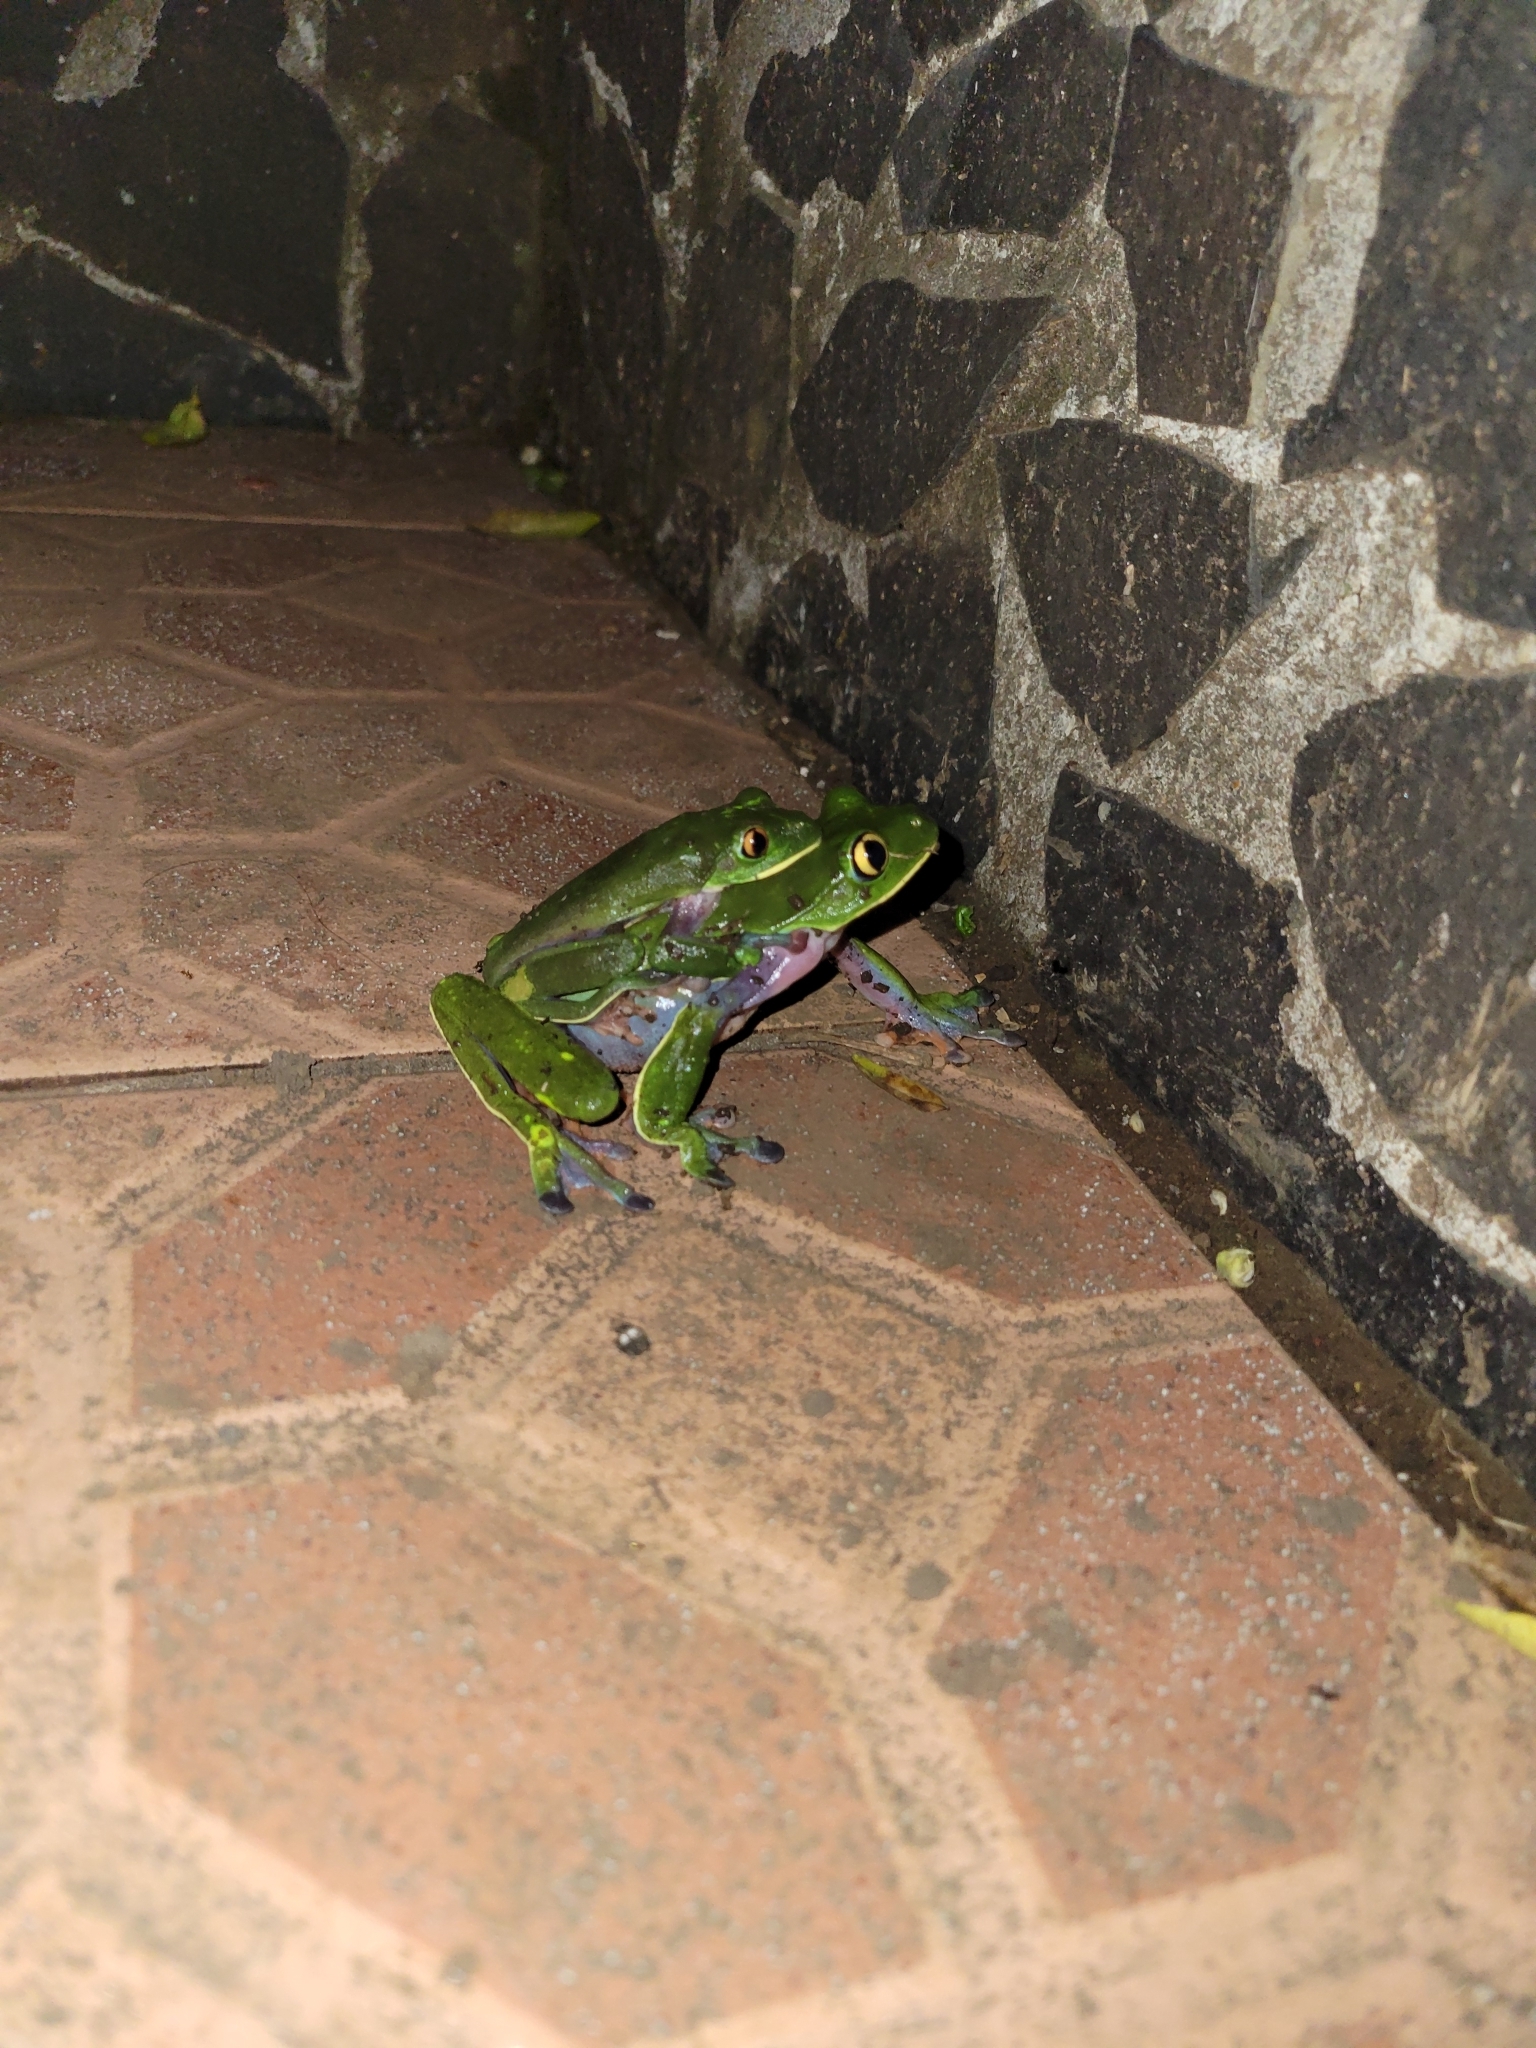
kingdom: Animalia
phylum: Chordata
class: Amphibia
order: Anura
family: Phyllomedusidae
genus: Agalychnis
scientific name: Agalychnis annae
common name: Blue-sided treefrog
